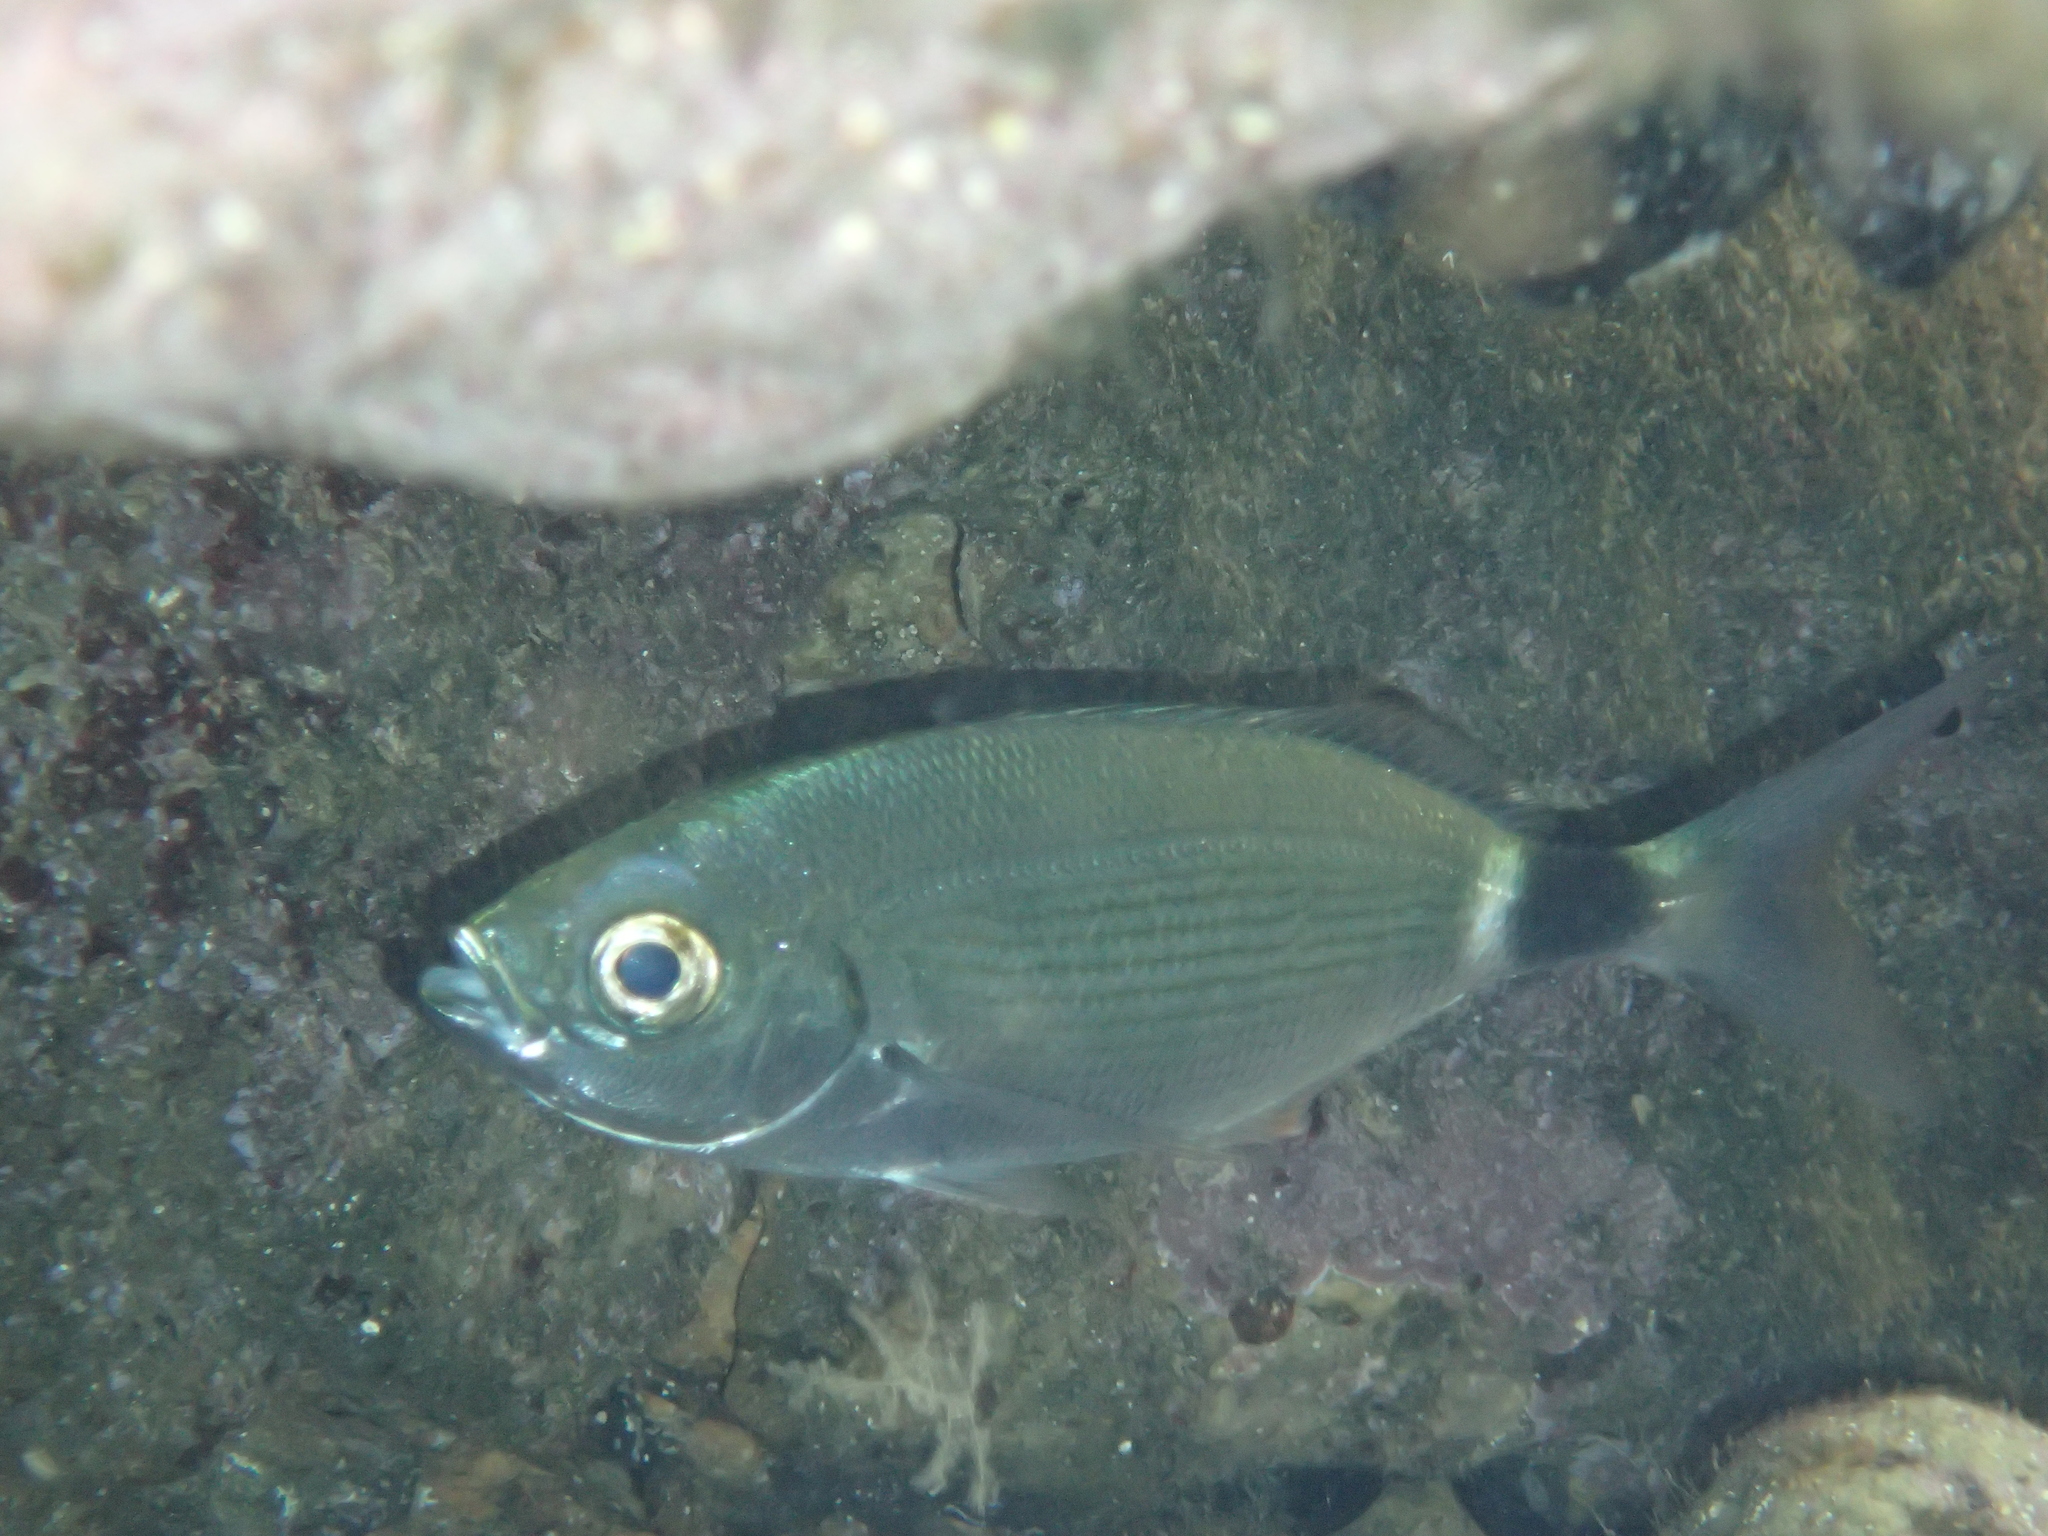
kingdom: Animalia
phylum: Chordata
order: Perciformes
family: Sparidae
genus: Oblada
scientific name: Oblada melanura
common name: Saddled seabream
